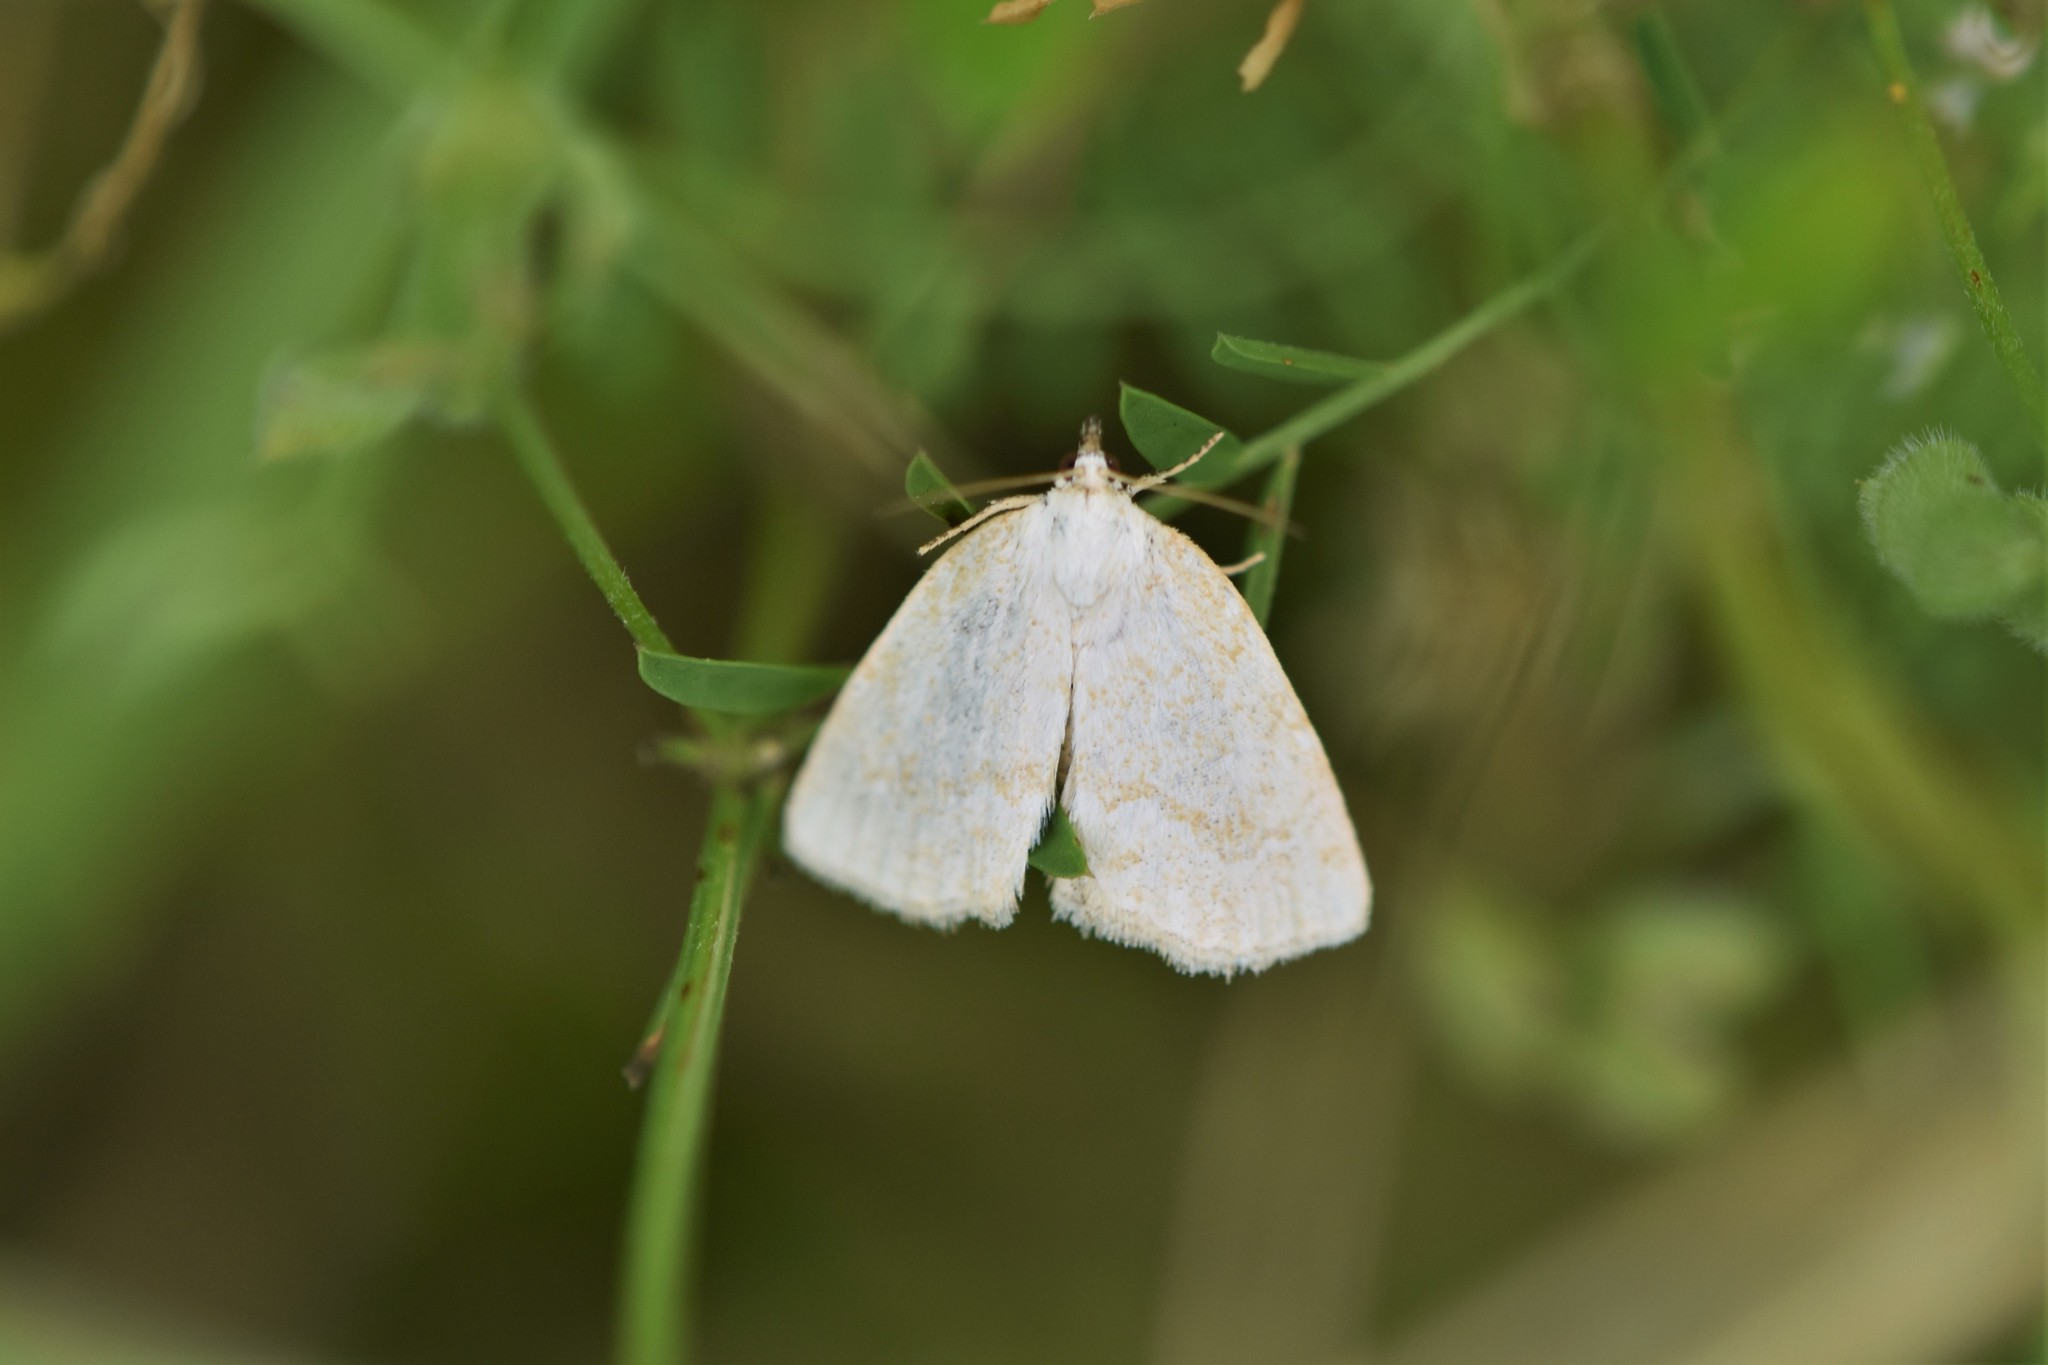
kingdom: Animalia
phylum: Arthropoda
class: Insecta
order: Lepidoptera
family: Noctuidae
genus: Protodeltote
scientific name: Protodeltote albidula
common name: Pale glyph
